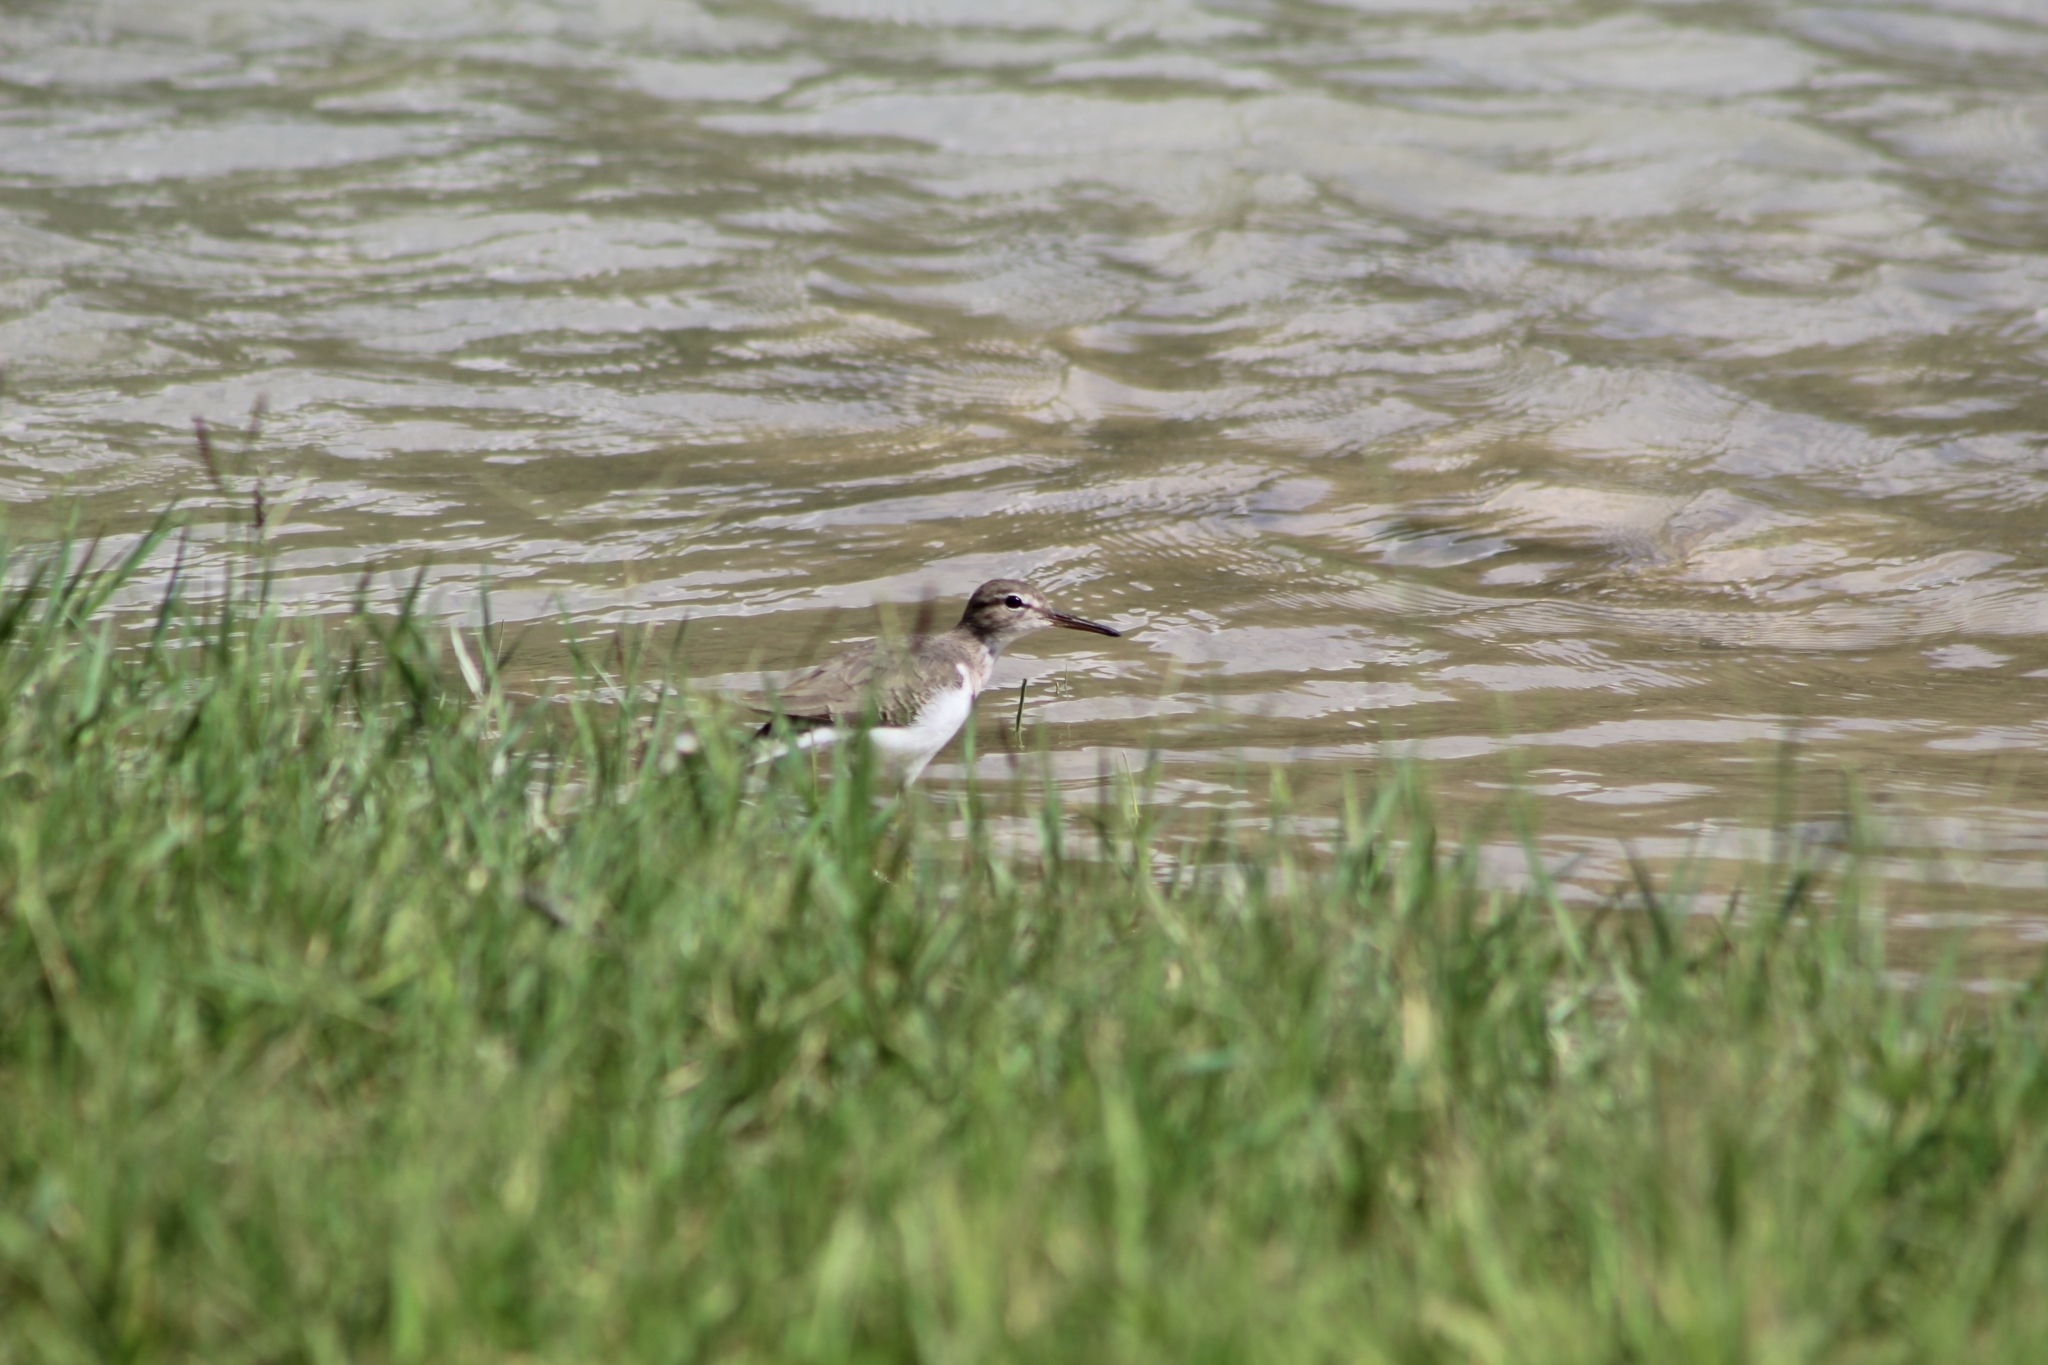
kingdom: Animalia
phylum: Chordata
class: Aves
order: Charadriiformes
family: Scolopacidae
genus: Actitis
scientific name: Actitis macularius
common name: Spotted sandpiper
